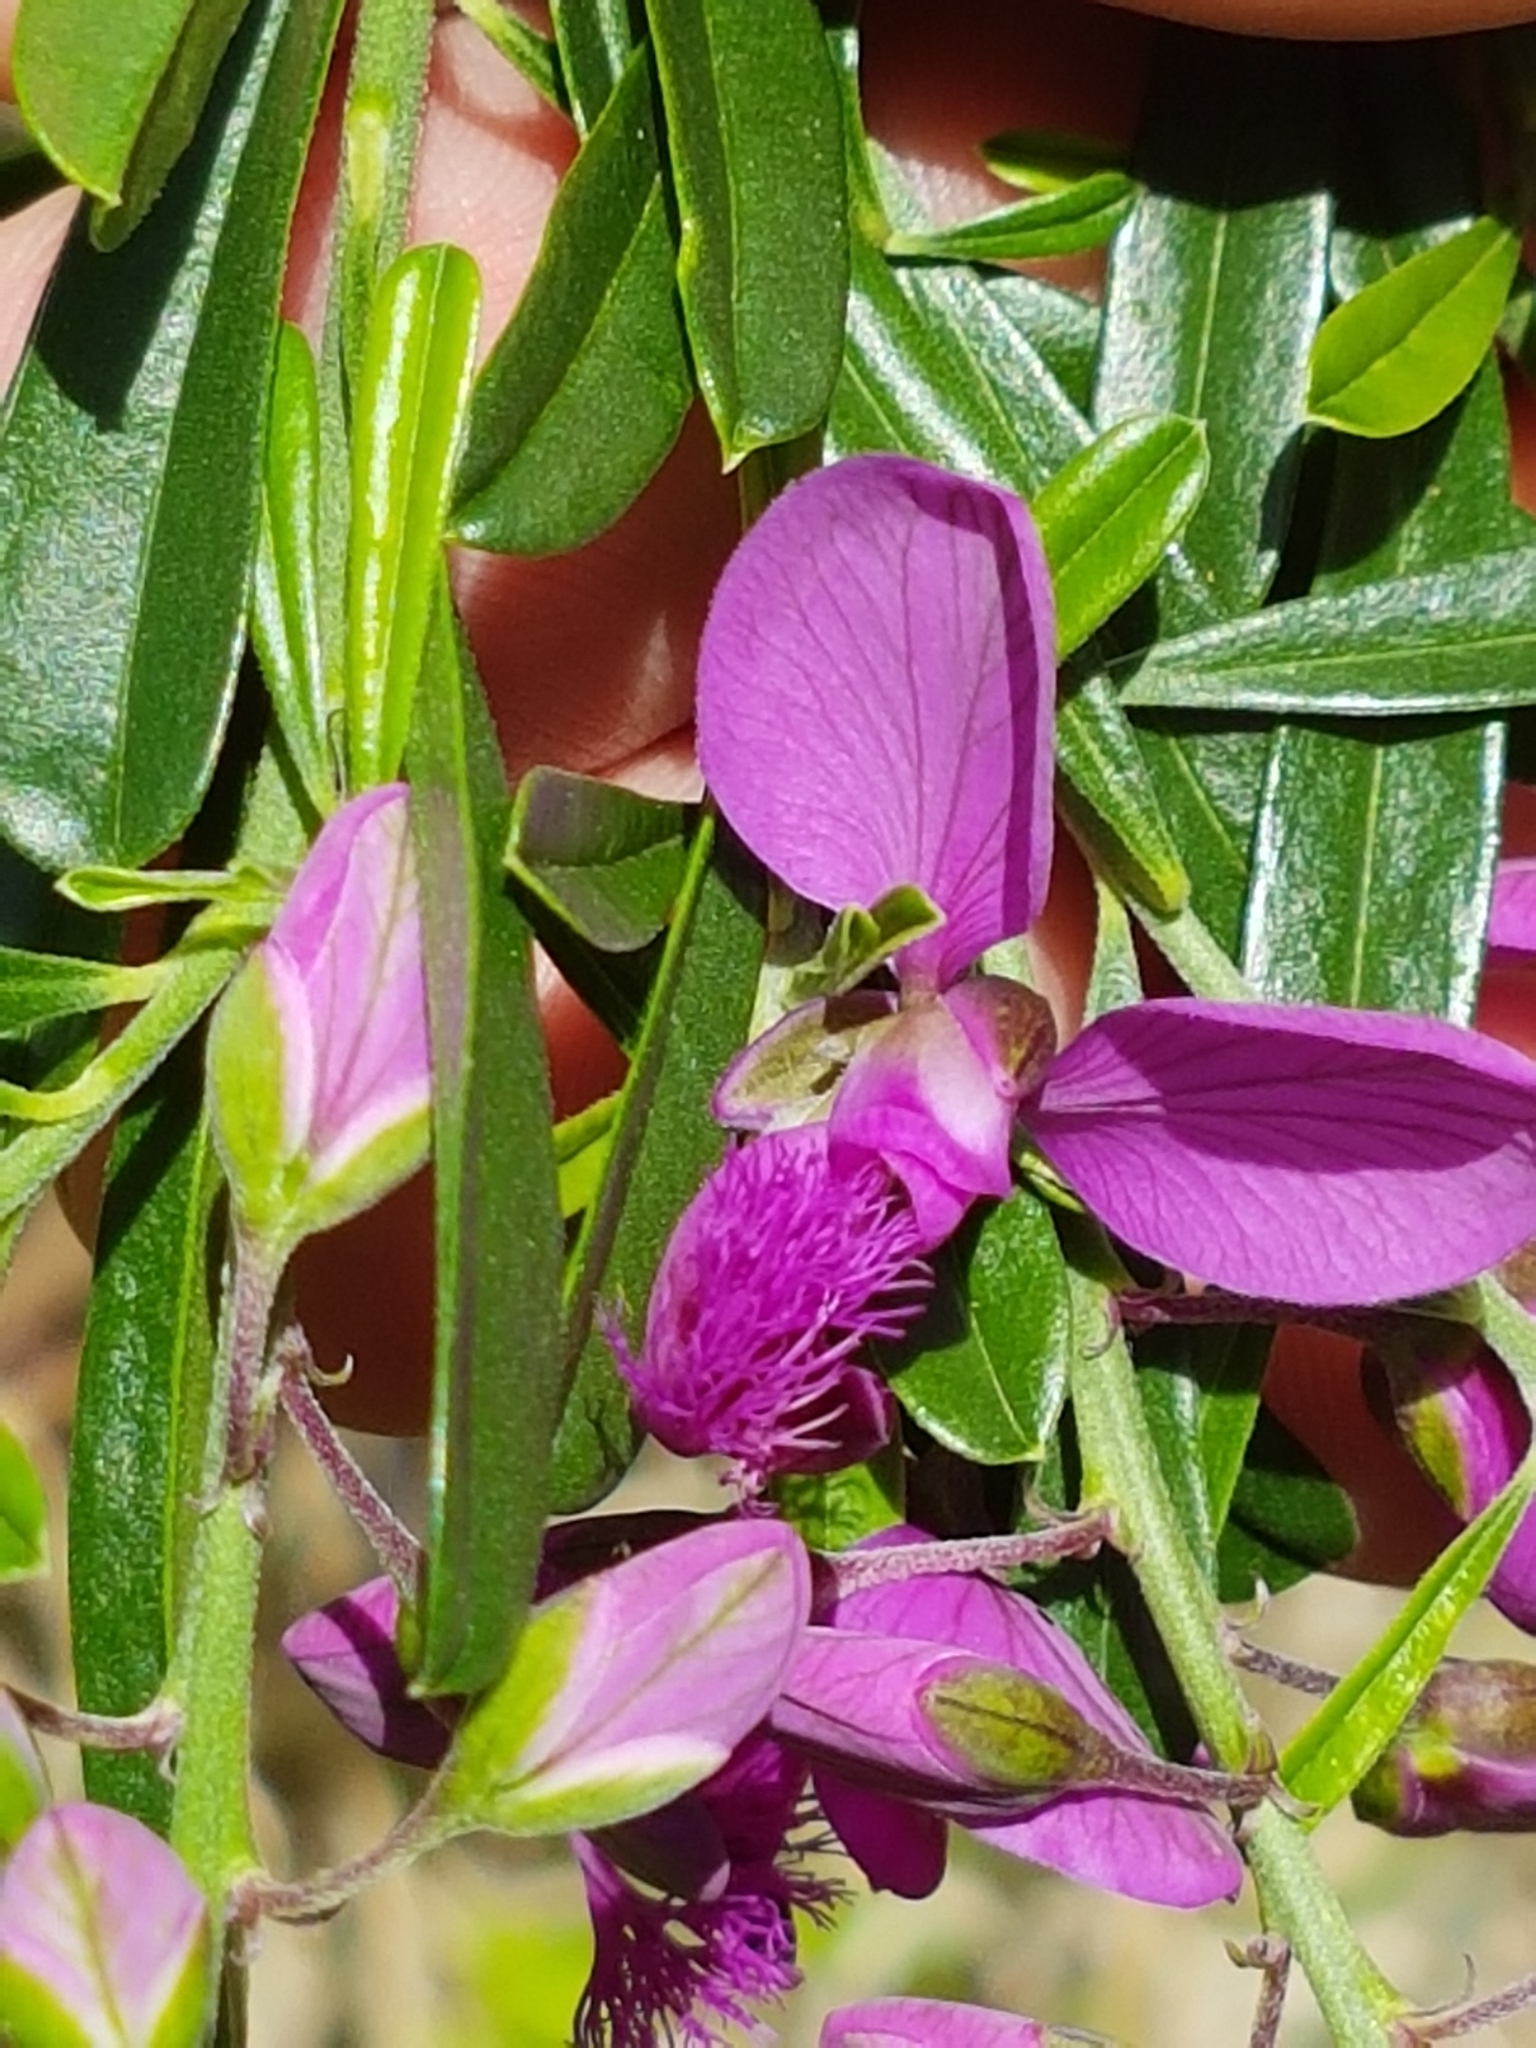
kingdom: Plantae
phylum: Tracheophyta
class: Magnoliopsida
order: Fabales
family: Polygalaceae
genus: Polygala
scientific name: Polygala virgata
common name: Milkwort
